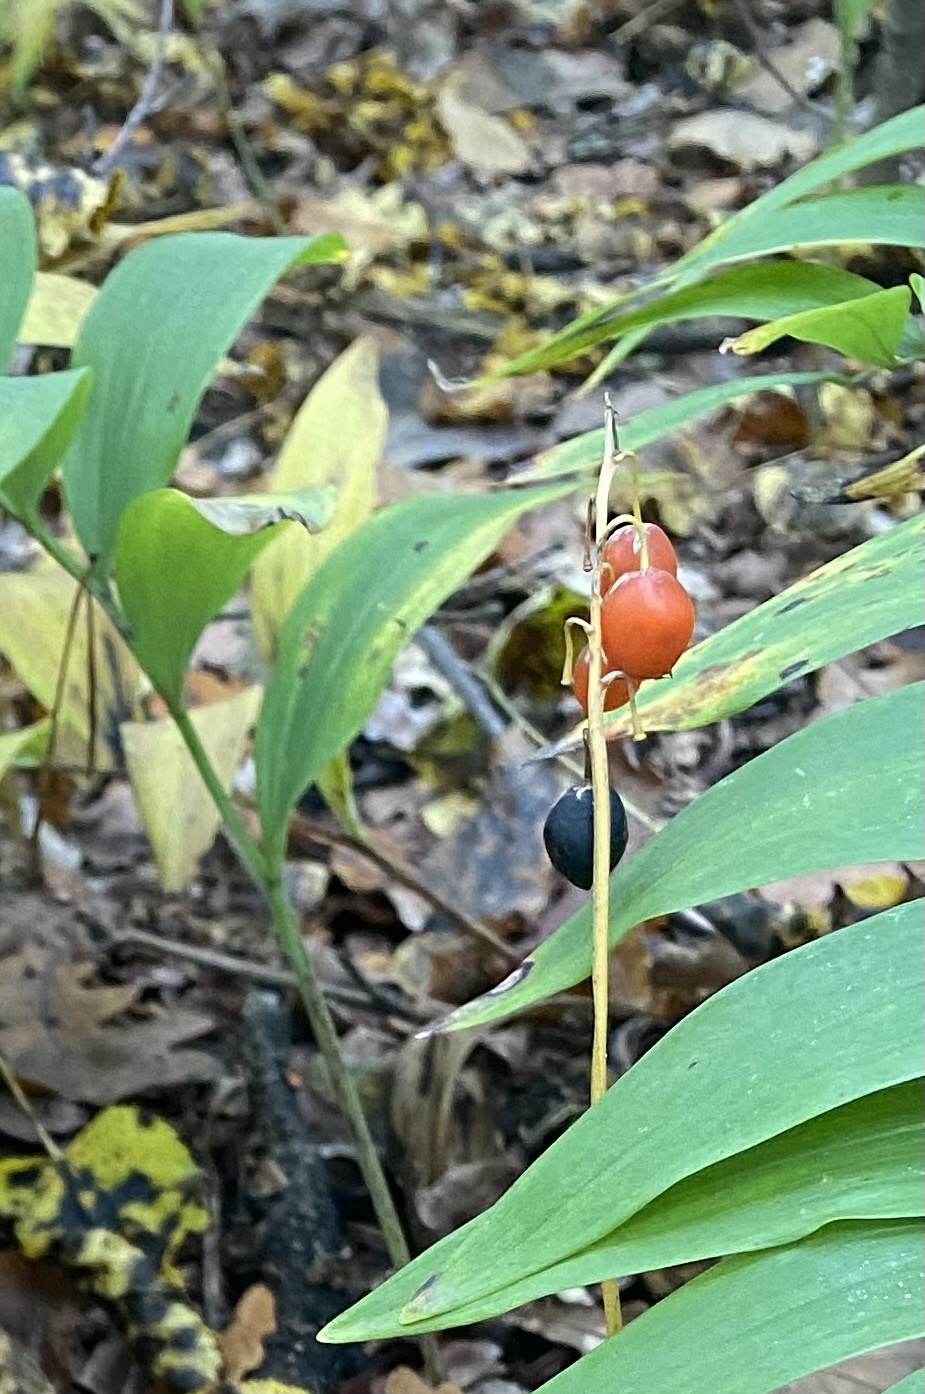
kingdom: Plantae
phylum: Tracheophyta
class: Liliopsida
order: Asparagales
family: Asparagaceae
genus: Convallaria
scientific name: Convallaria majalis
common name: Lily-of-the-valley
